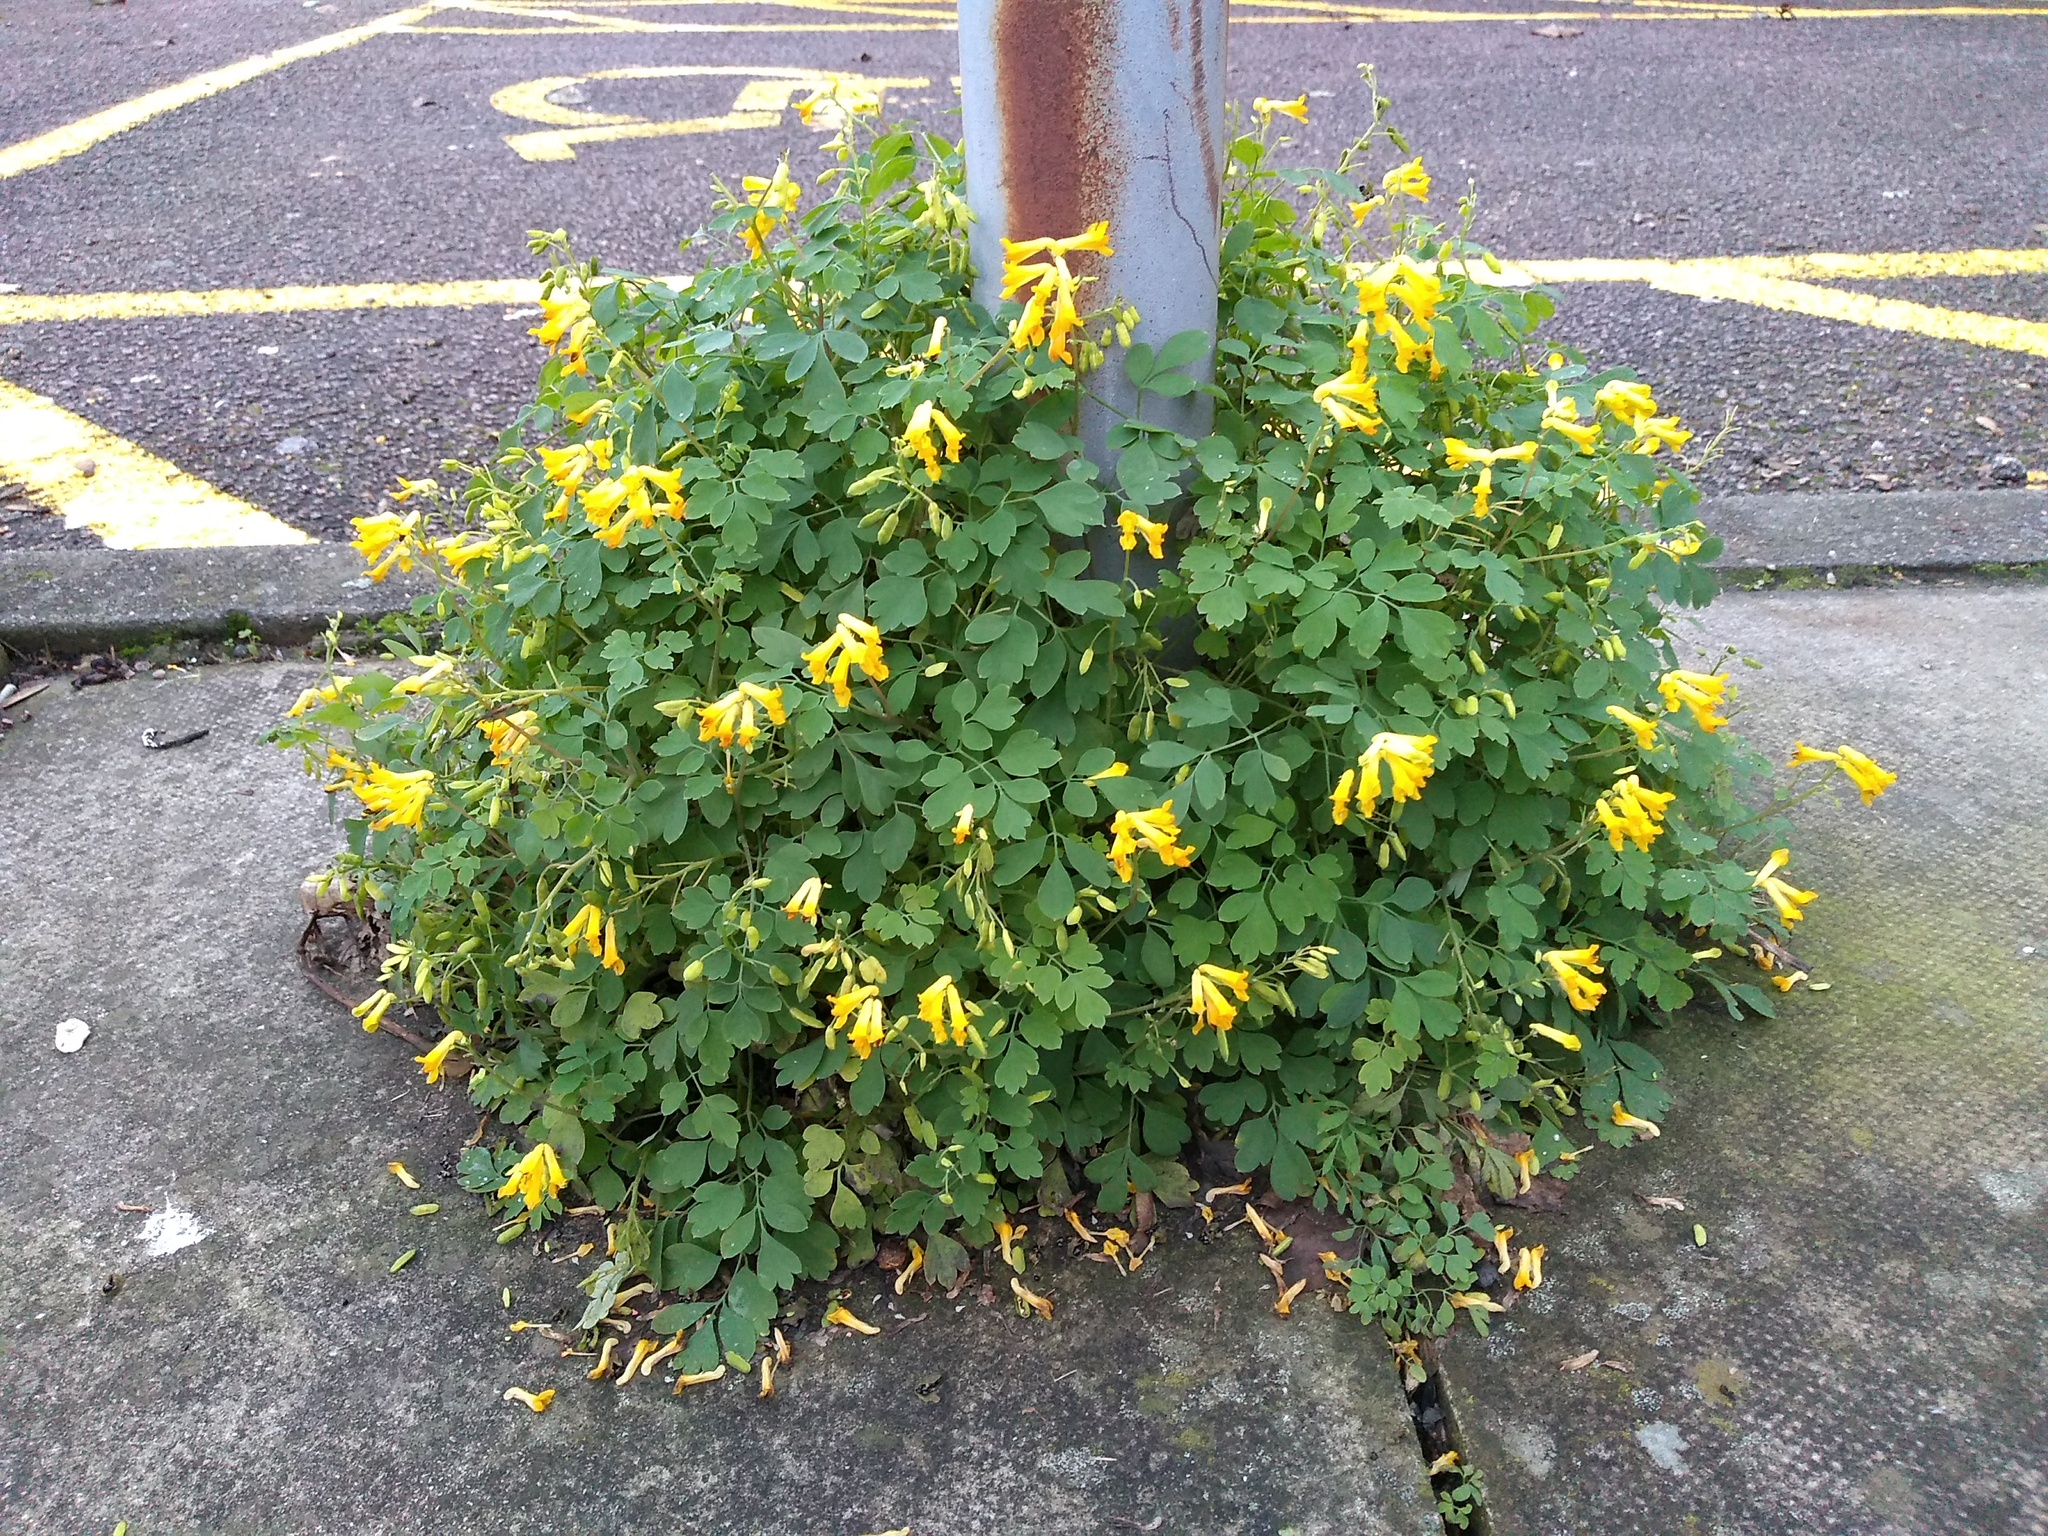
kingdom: Plantae
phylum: Tracheophyta
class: Magnoliopsida
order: Ranunculales
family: Papaveraceae
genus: Pseudofumaria
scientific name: Pseudofumaria lutea
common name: Yellow corydalis
